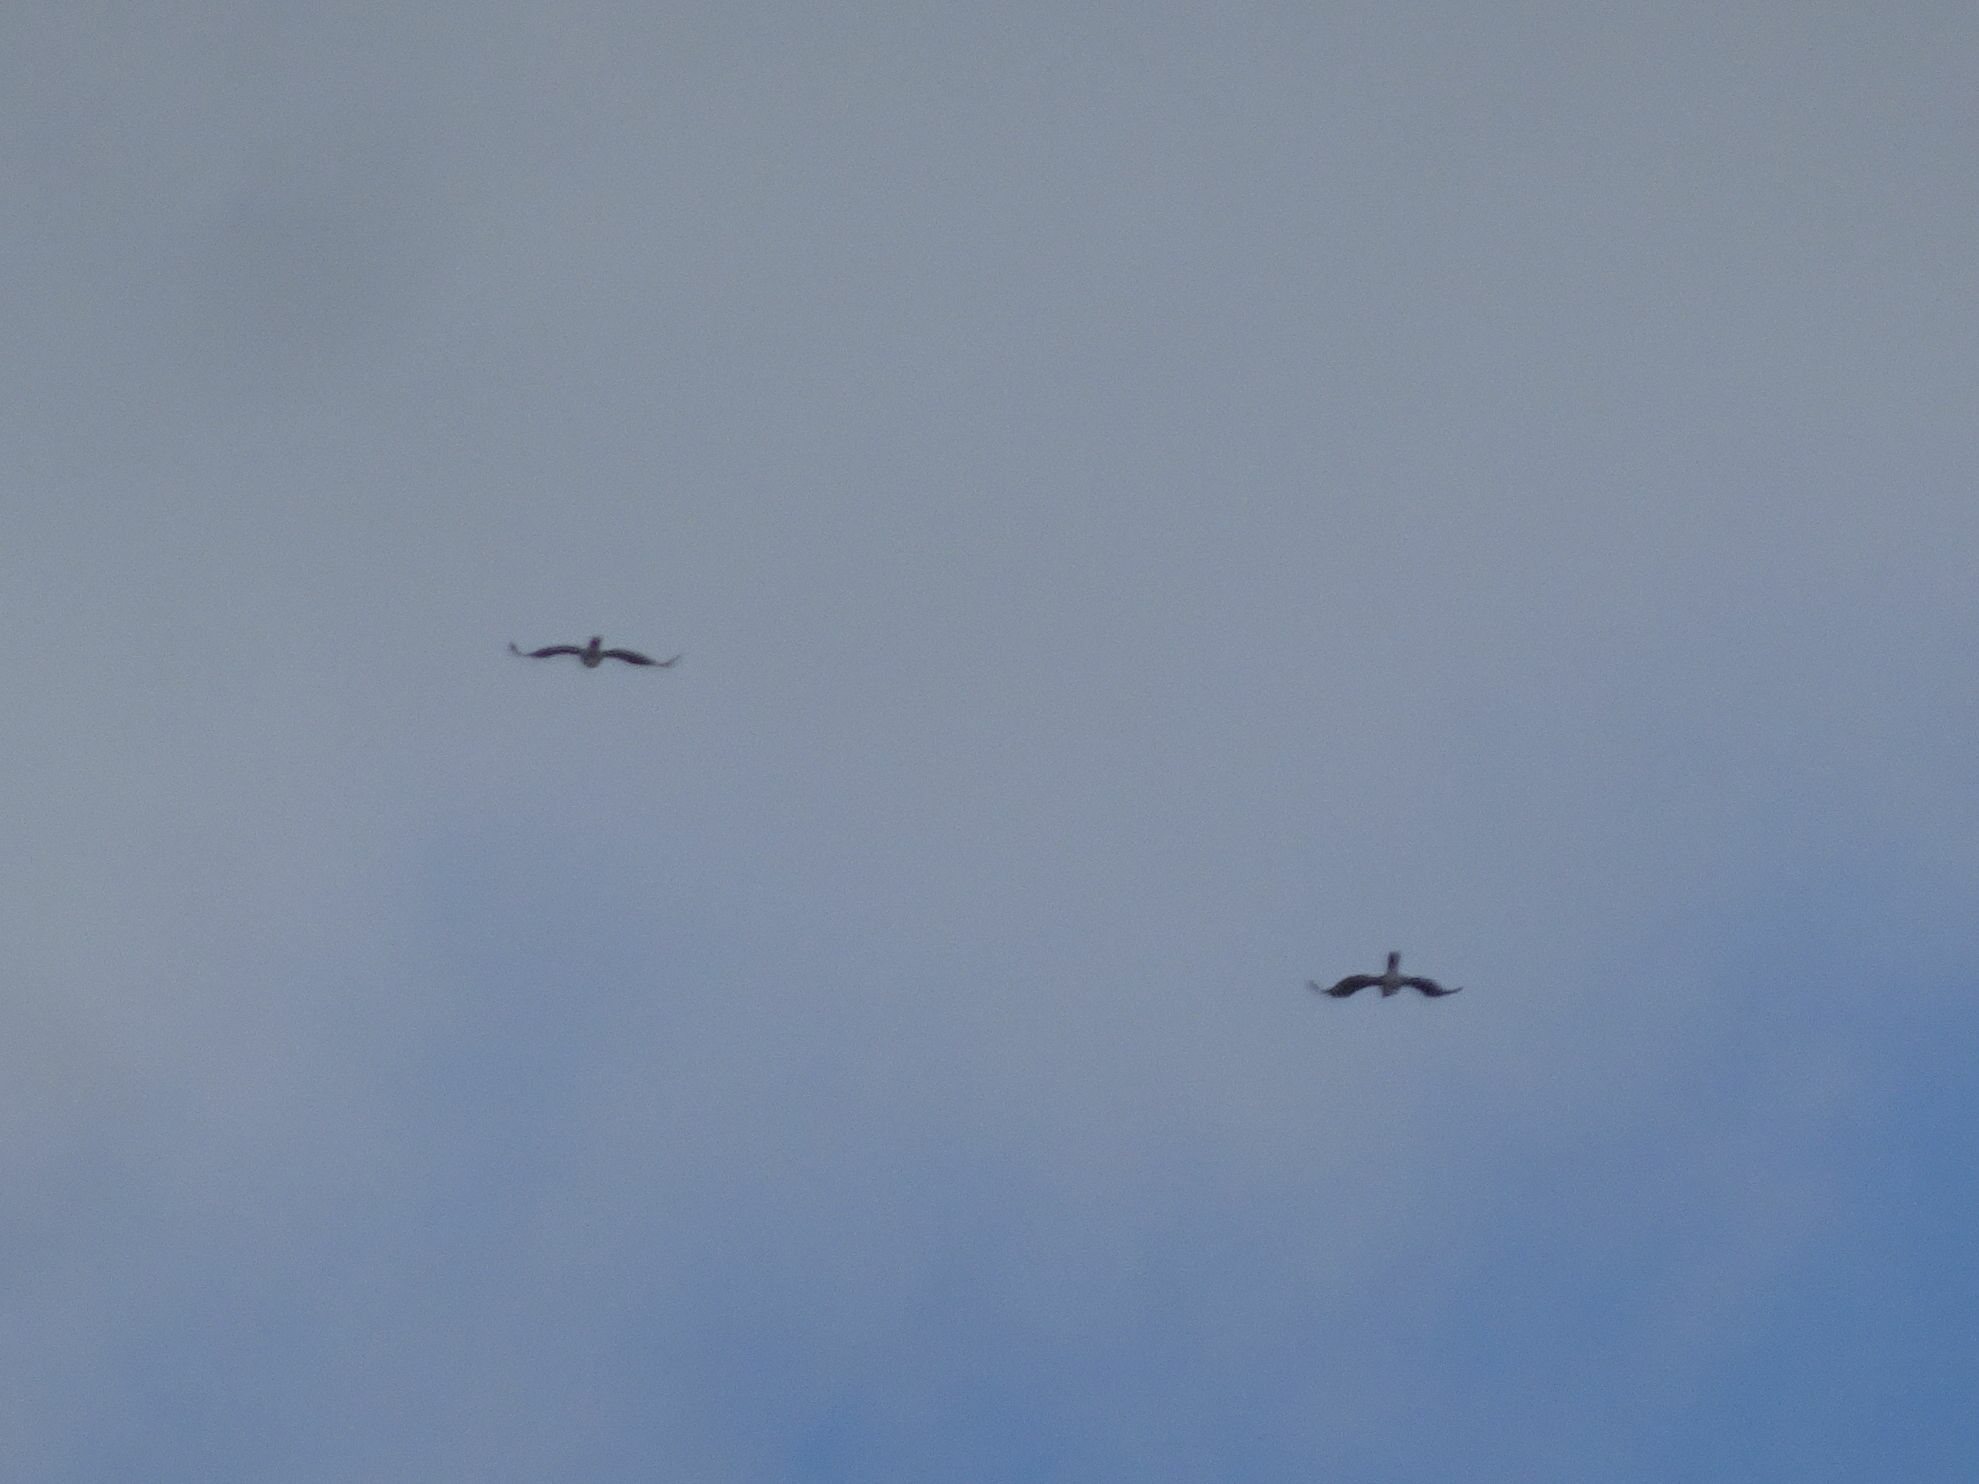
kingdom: Animalia
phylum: Chordata
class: Aves
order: Accipitriformes
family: Accipitridae
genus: Circaetus
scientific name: Circaetus gallicus
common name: Short-toed snake eagle
